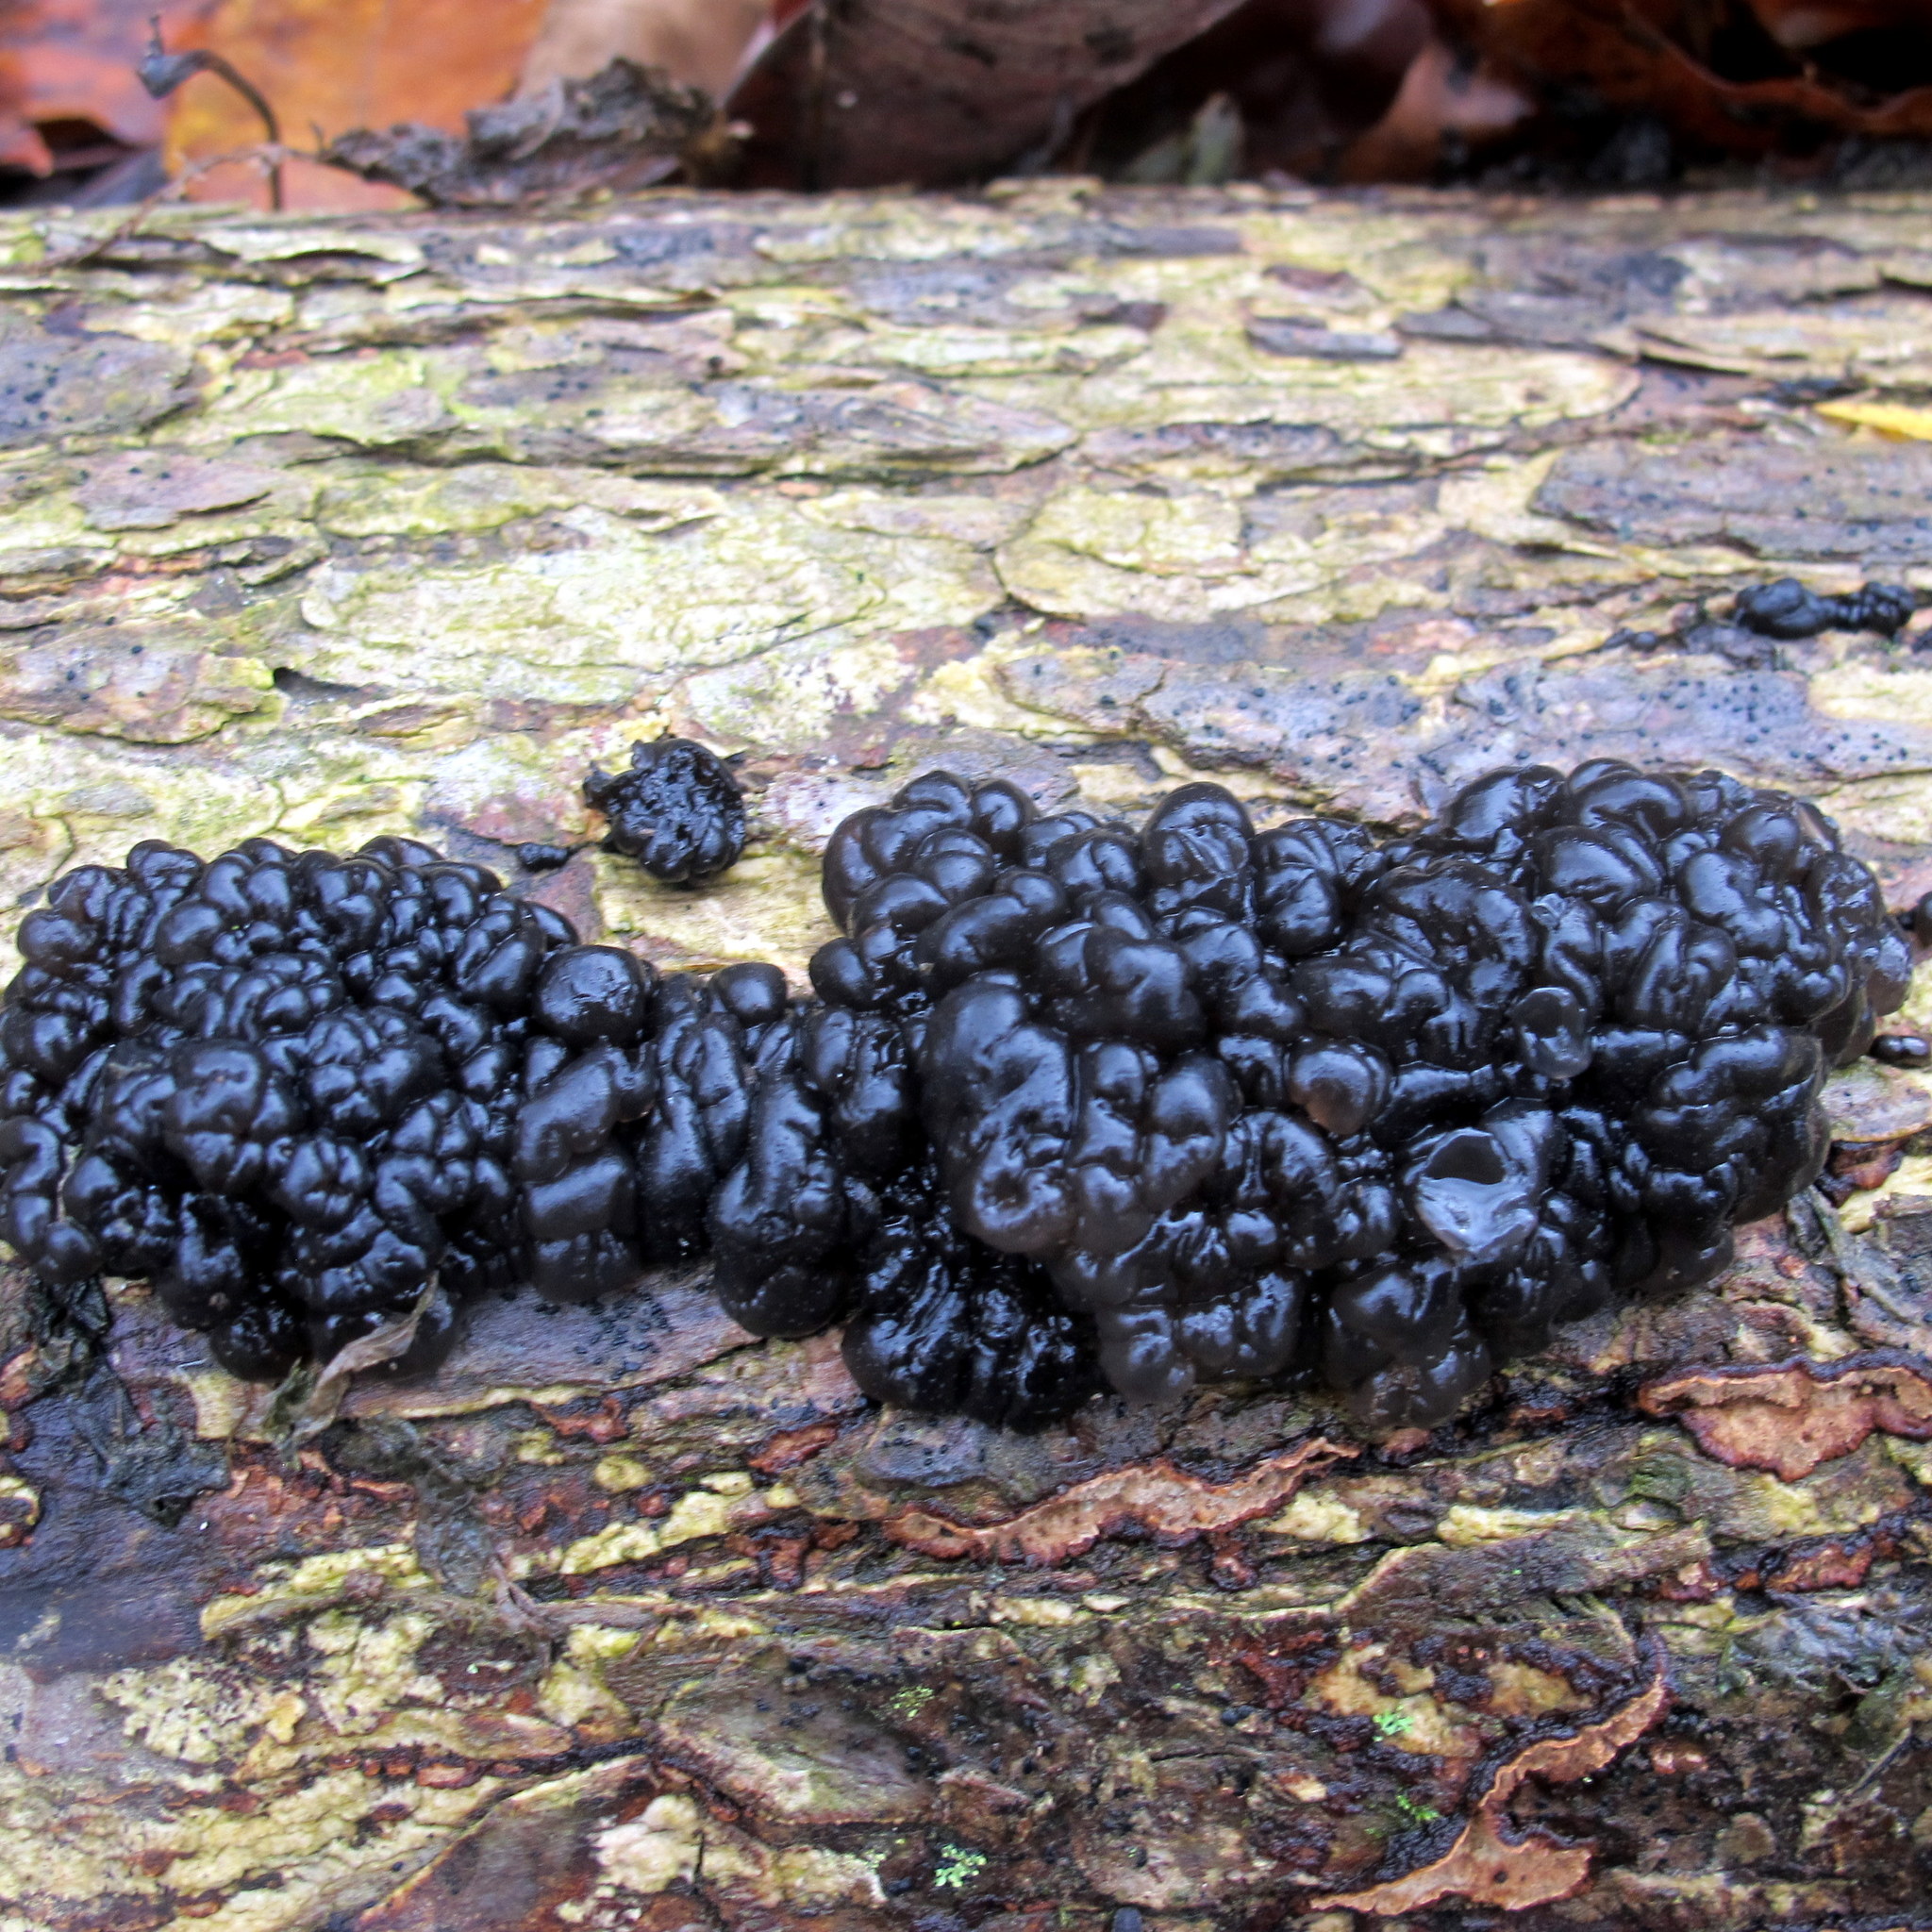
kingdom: Fungi
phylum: Basidiomycota
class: Agaricomycetes
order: Auriculariales
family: Auriculariaceae
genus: Exidia
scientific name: Exidia glandulosa
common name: Witches' butter
